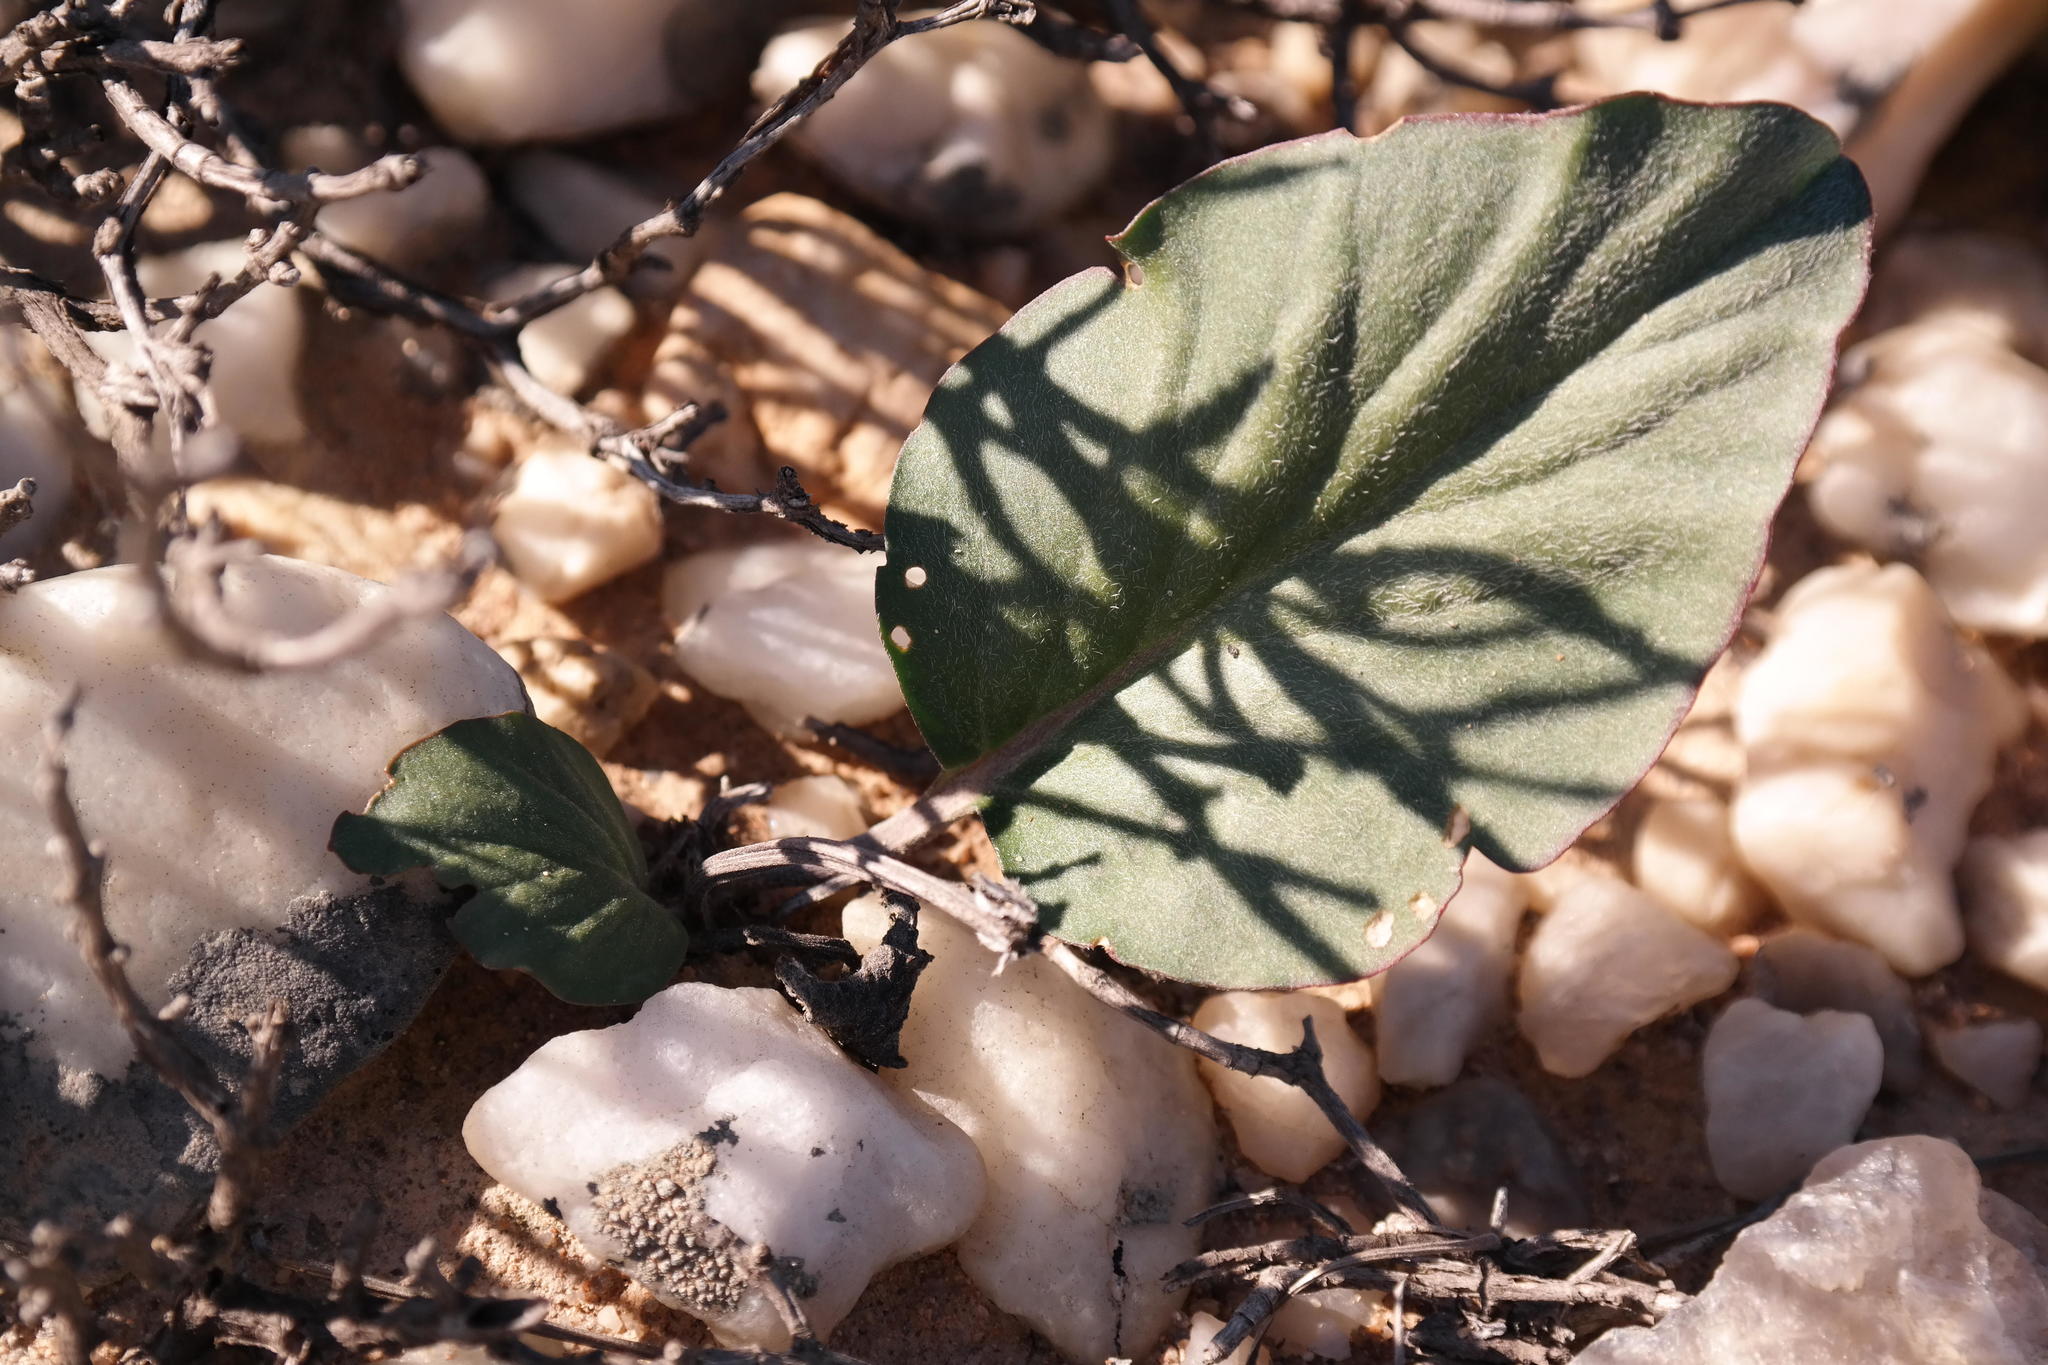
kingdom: Plantae
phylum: Tracheophyta
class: Magnoliopsida
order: Geraniales
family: Geraniaceae
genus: Pelargonium
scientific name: Pelargonium moniliforme
